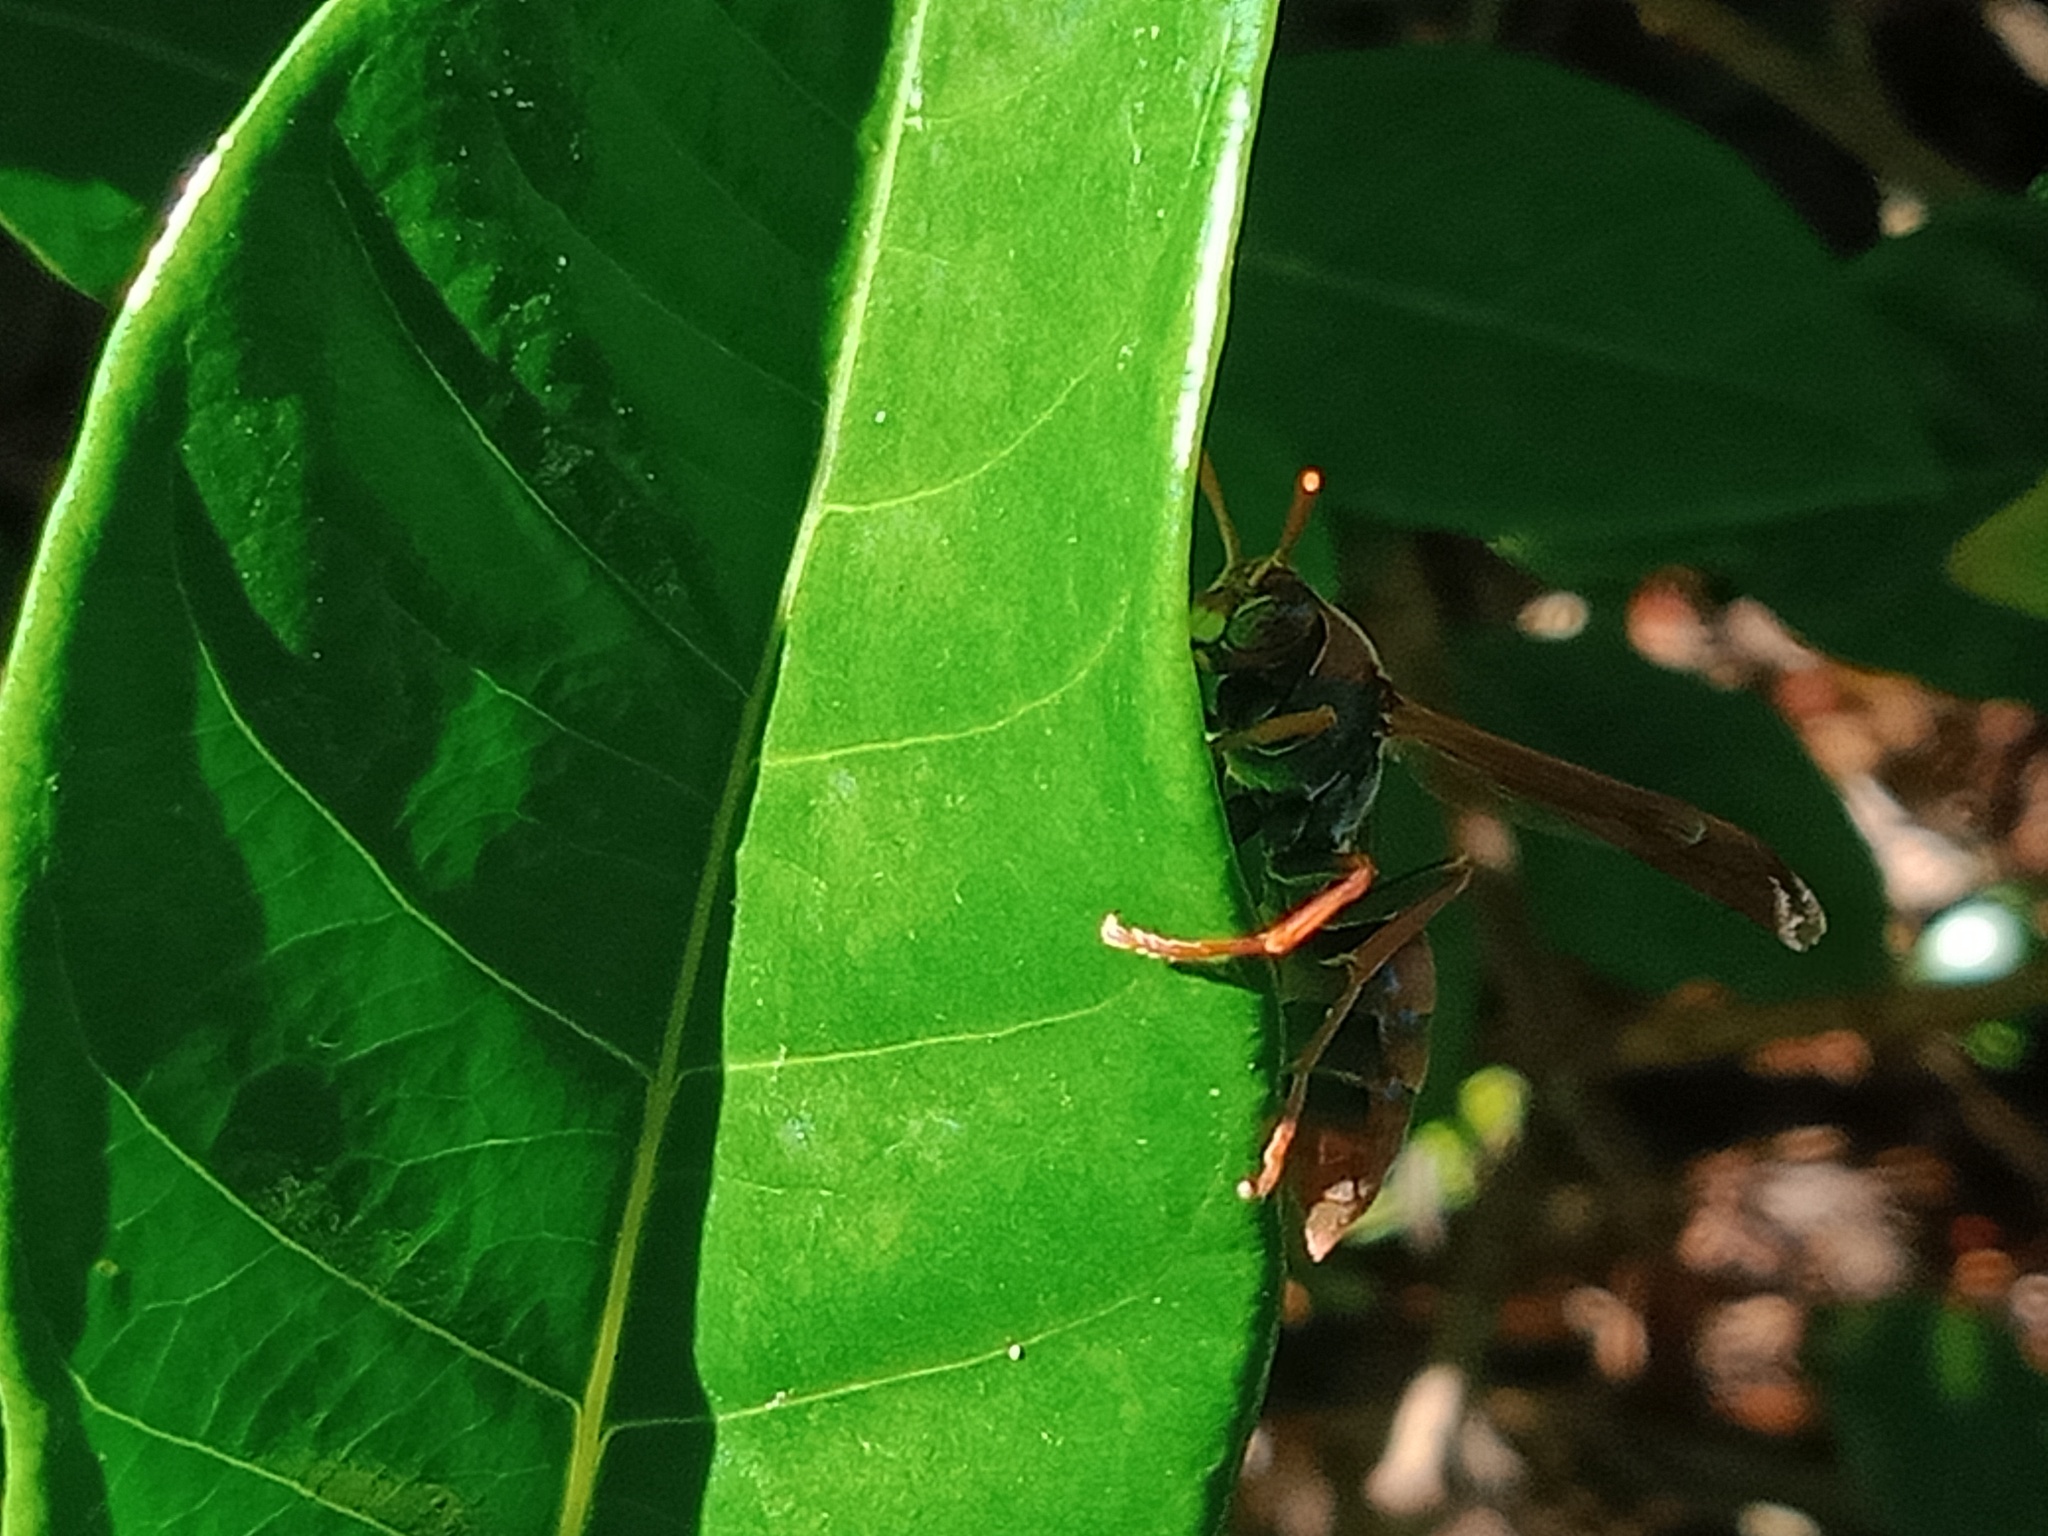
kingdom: Animalia
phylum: Arthropoda
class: Insecta
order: Hymenoptera
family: Eumenidae
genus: Polistes
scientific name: Polistes
